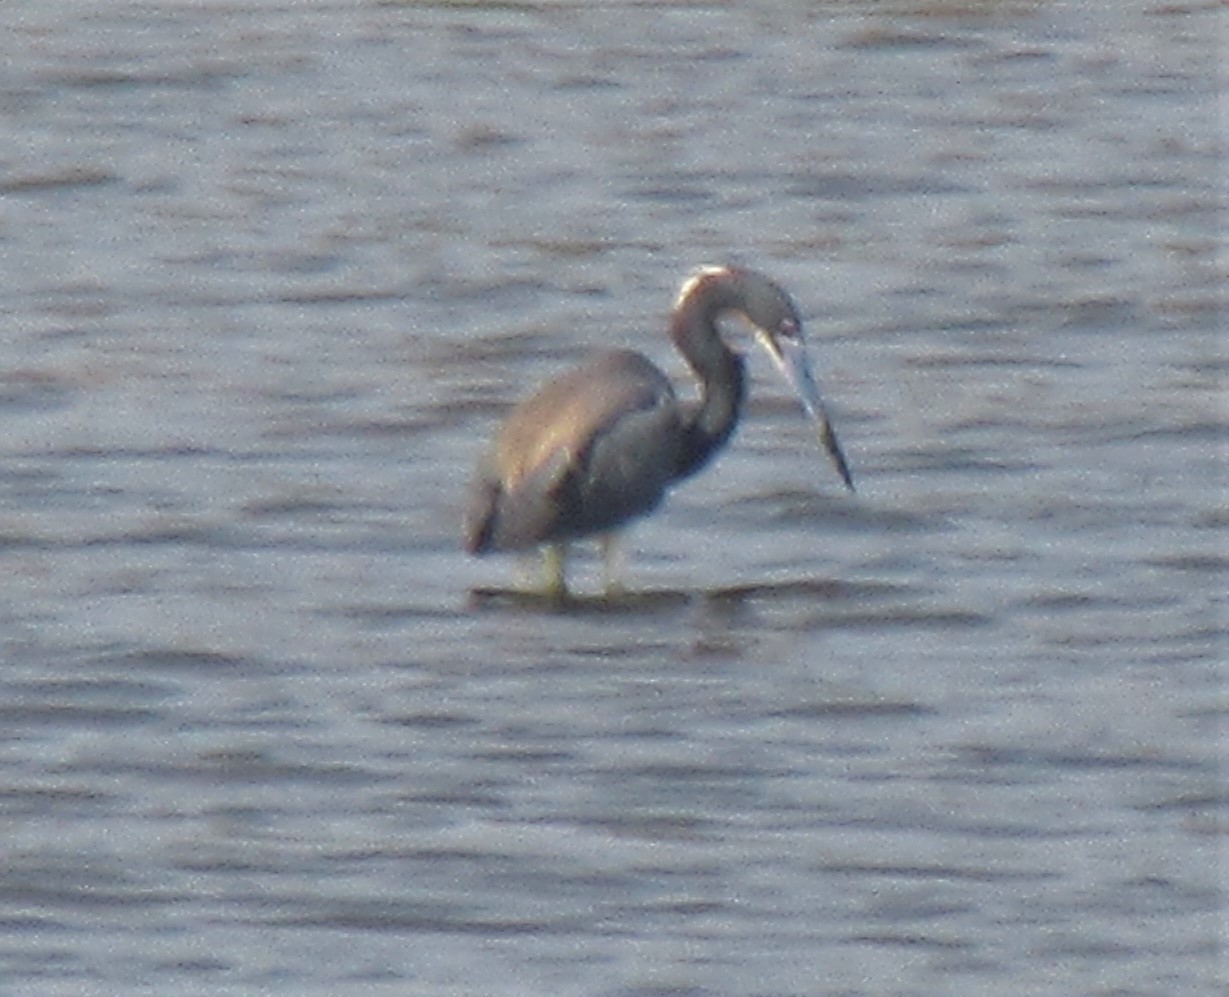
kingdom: Animalia
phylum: Chordata
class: Aves
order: Pelecaniformes
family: Ardeidae
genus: Egretta
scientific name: Egretta tricolor
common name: Tricolored heron
